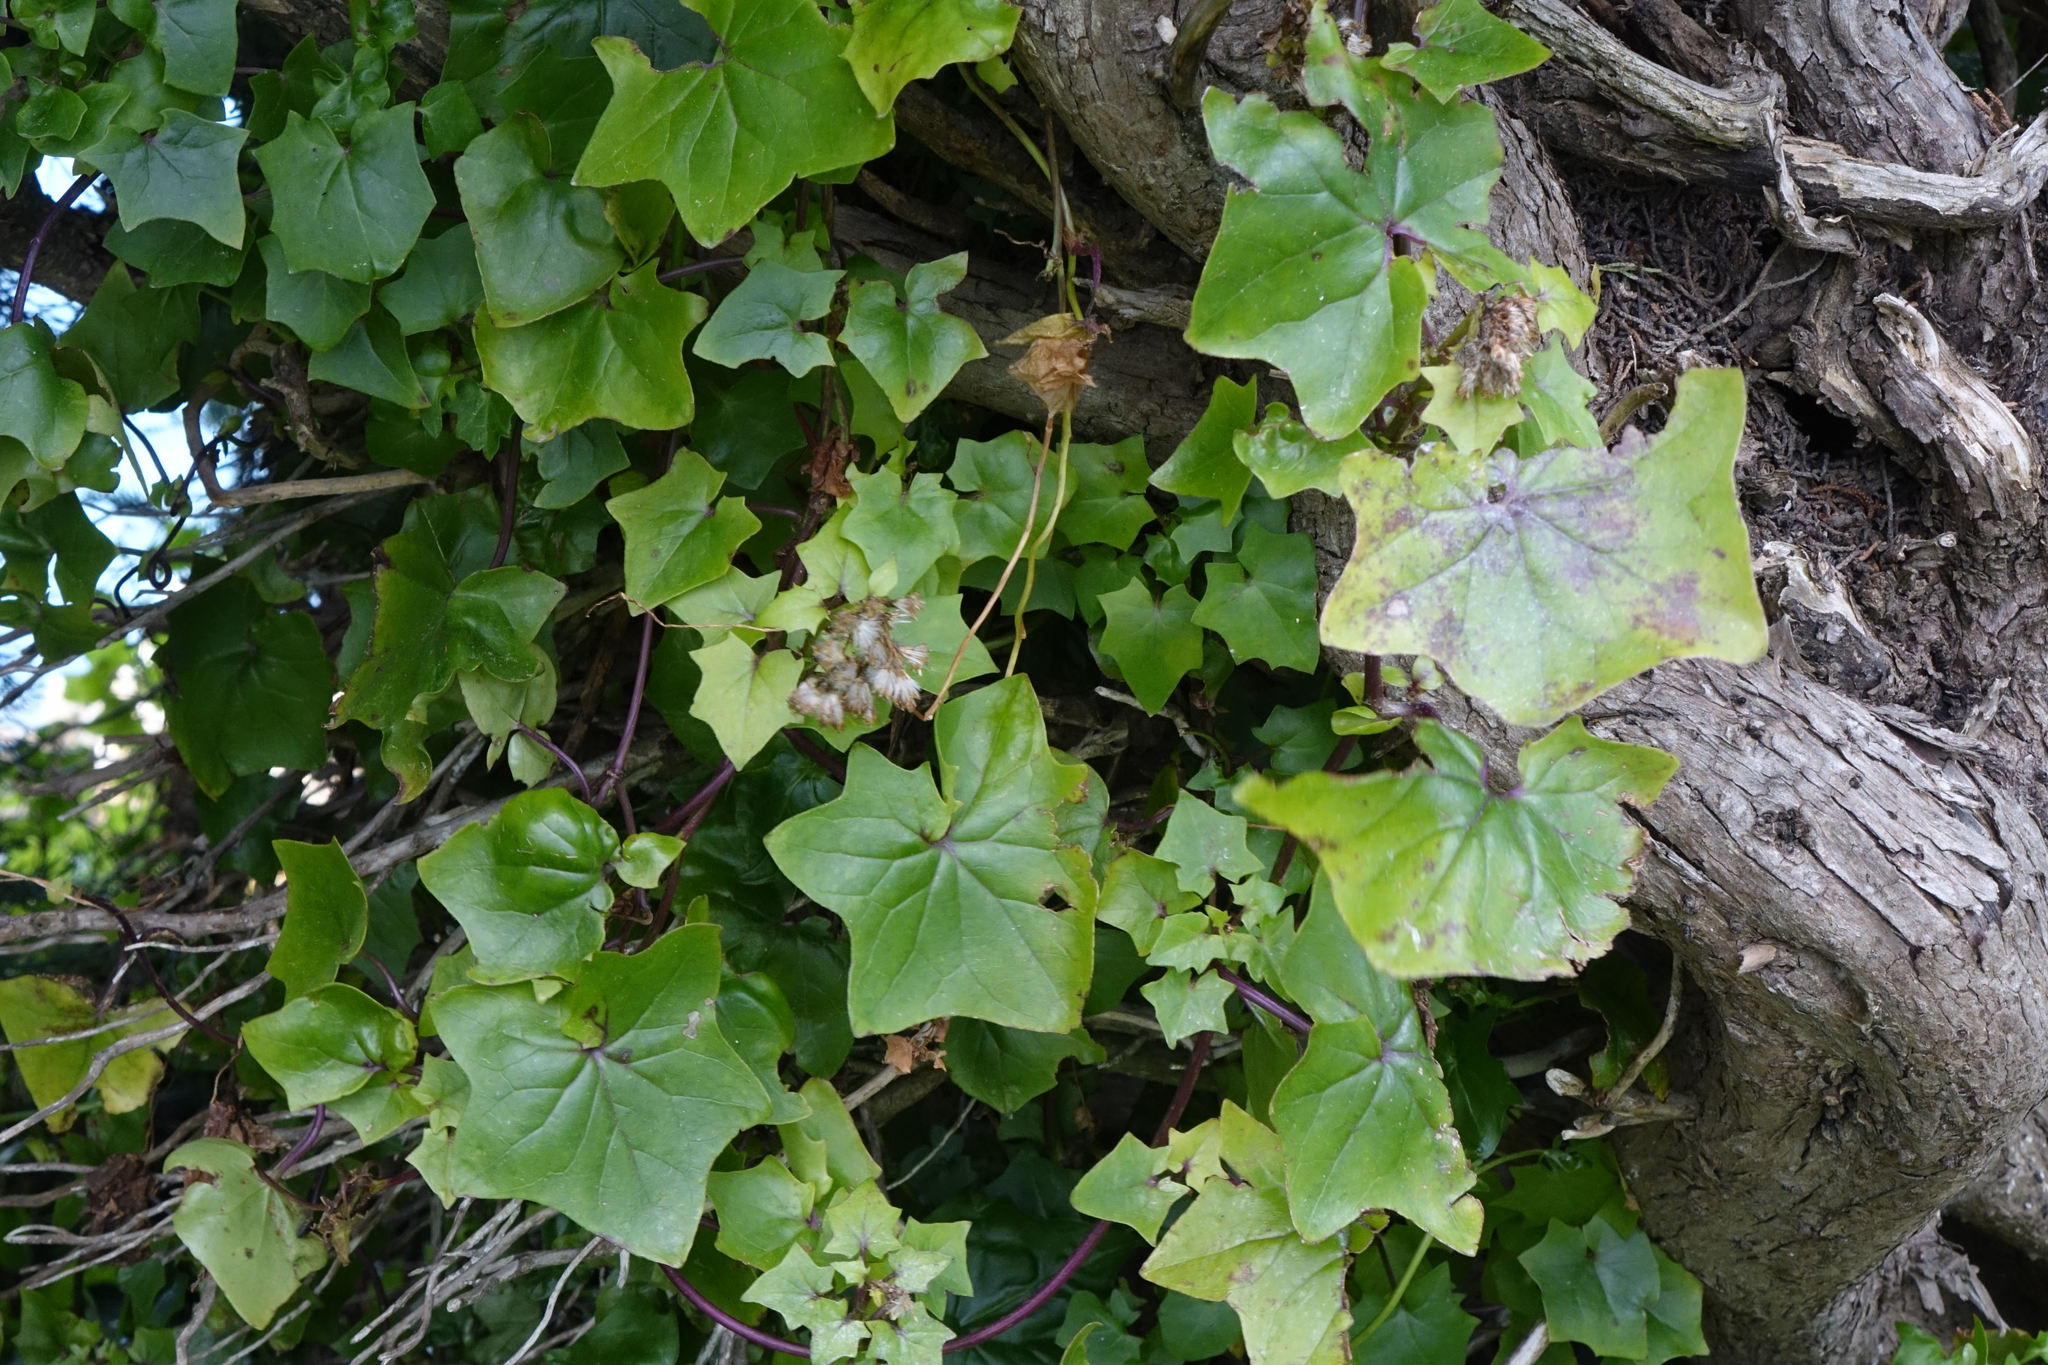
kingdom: Plantae
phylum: Tracheophyta
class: Magnoliopsida
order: Asterales
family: Asteraceae
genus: Delairea
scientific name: Delairea odorata
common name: Cape-ivy
